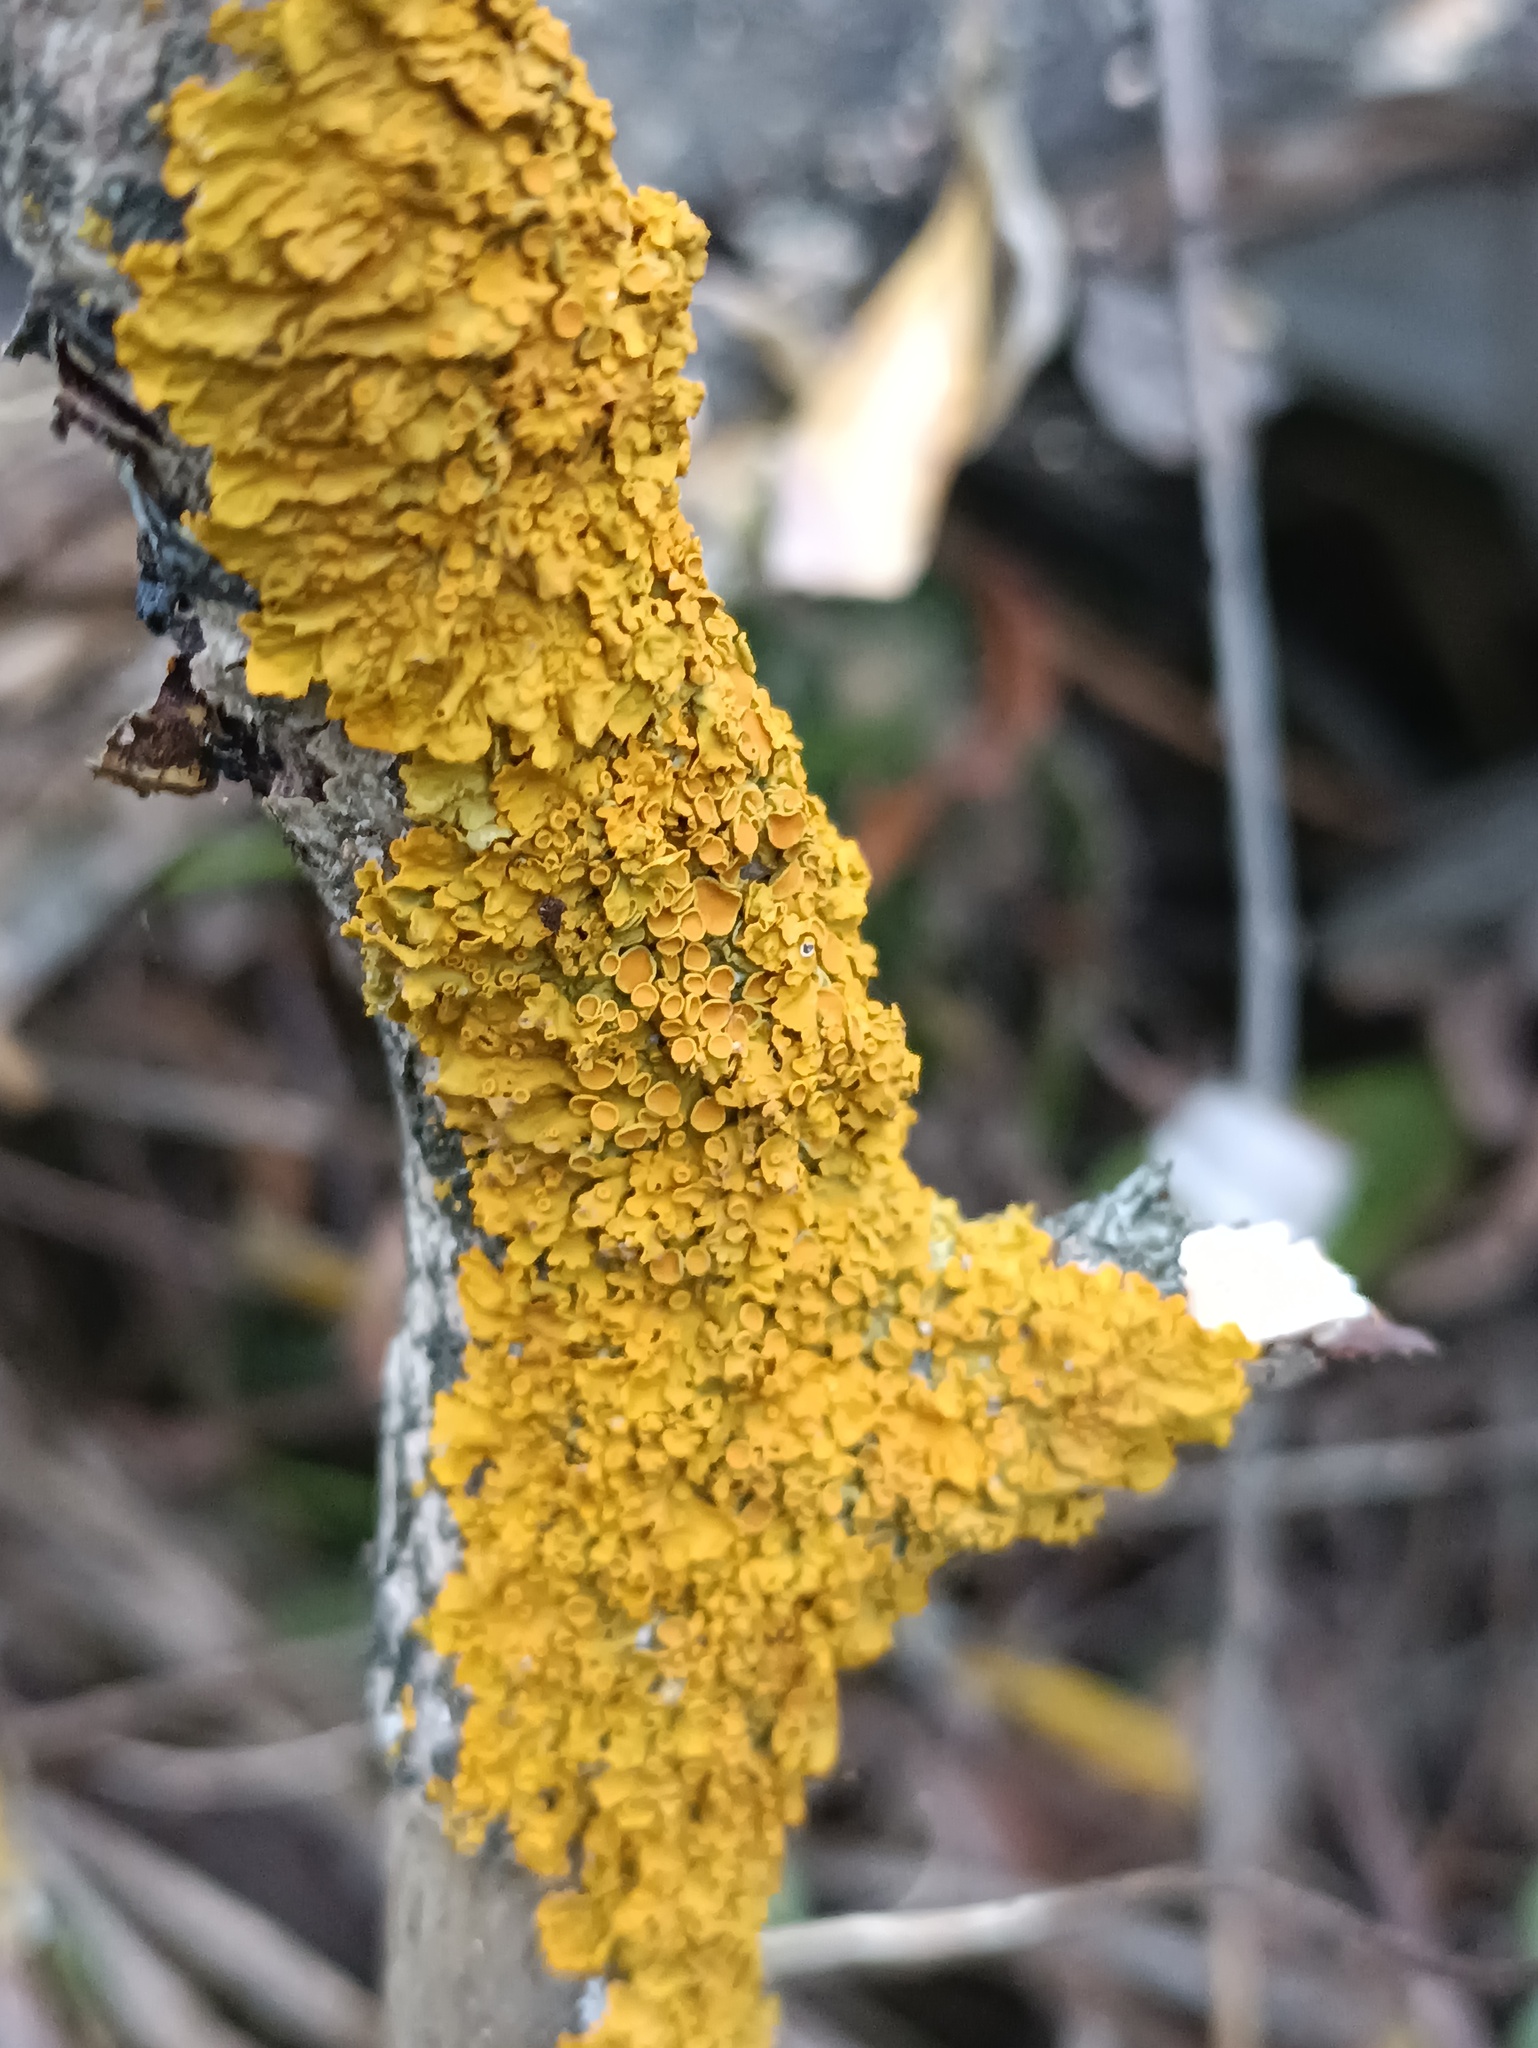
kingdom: Fungi
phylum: Ascomycota
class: Lecanoromycetes
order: Teloschistales
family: Teloschistaceae
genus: Xanthoria
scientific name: Xanthoria parietina
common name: Common orange lichen
